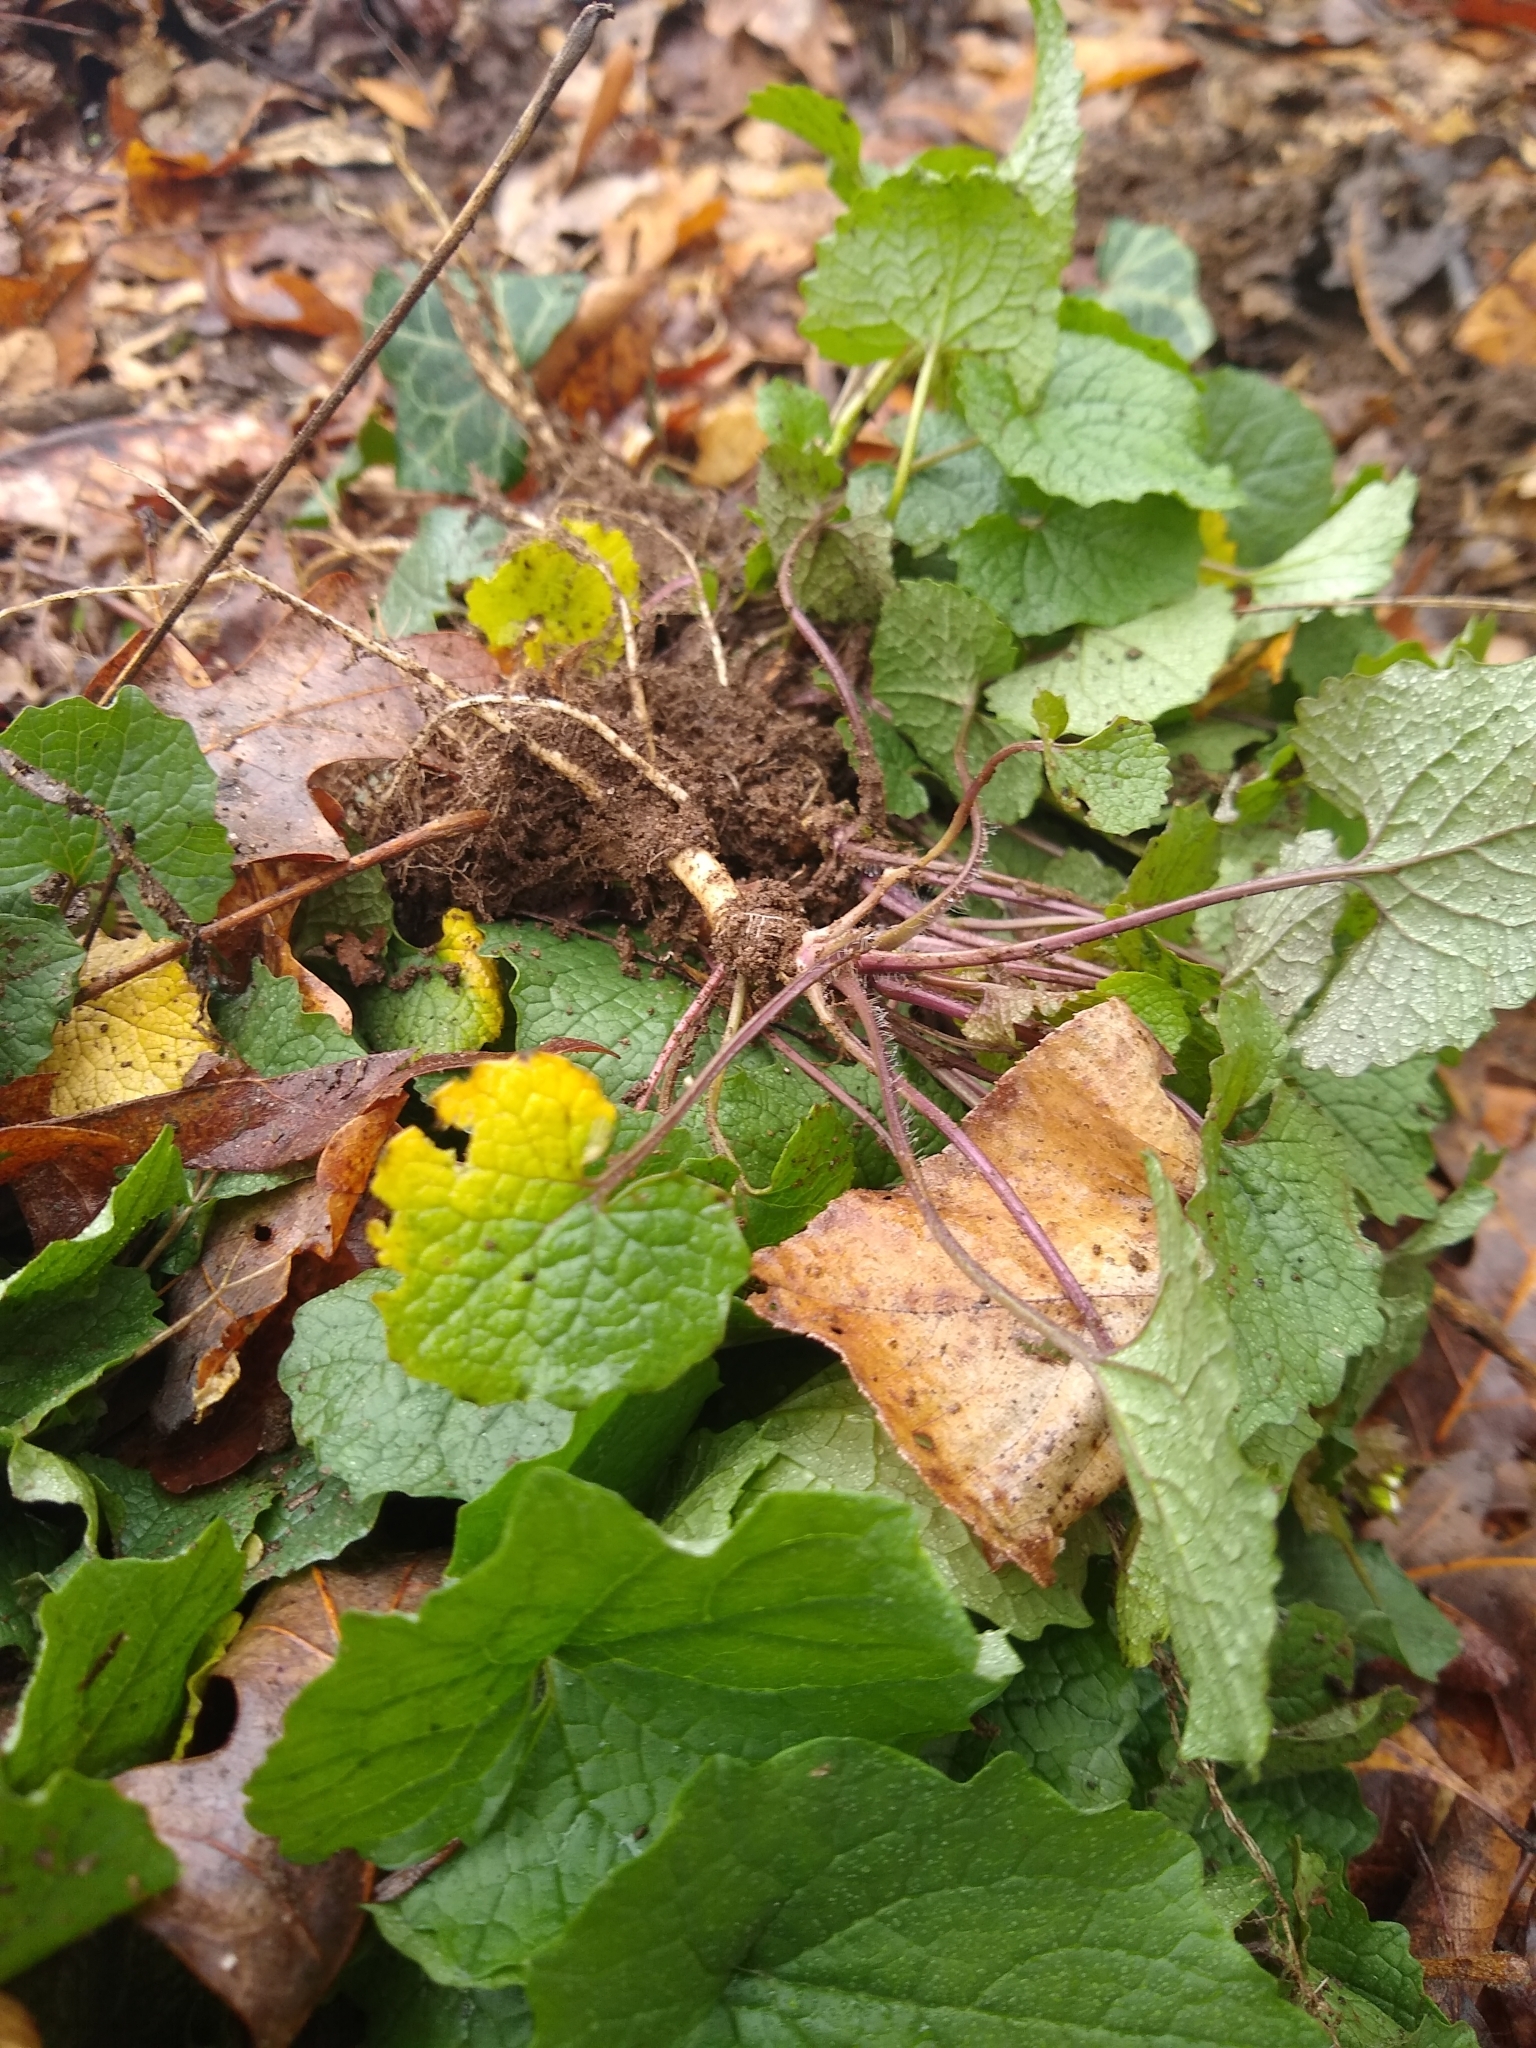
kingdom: Plantae
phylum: Tracheophyta
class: Magnoliopsida
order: Brassicales
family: Brassicaceae
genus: Alliaria
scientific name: Alliaria petiolata
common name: Garlic mustard
